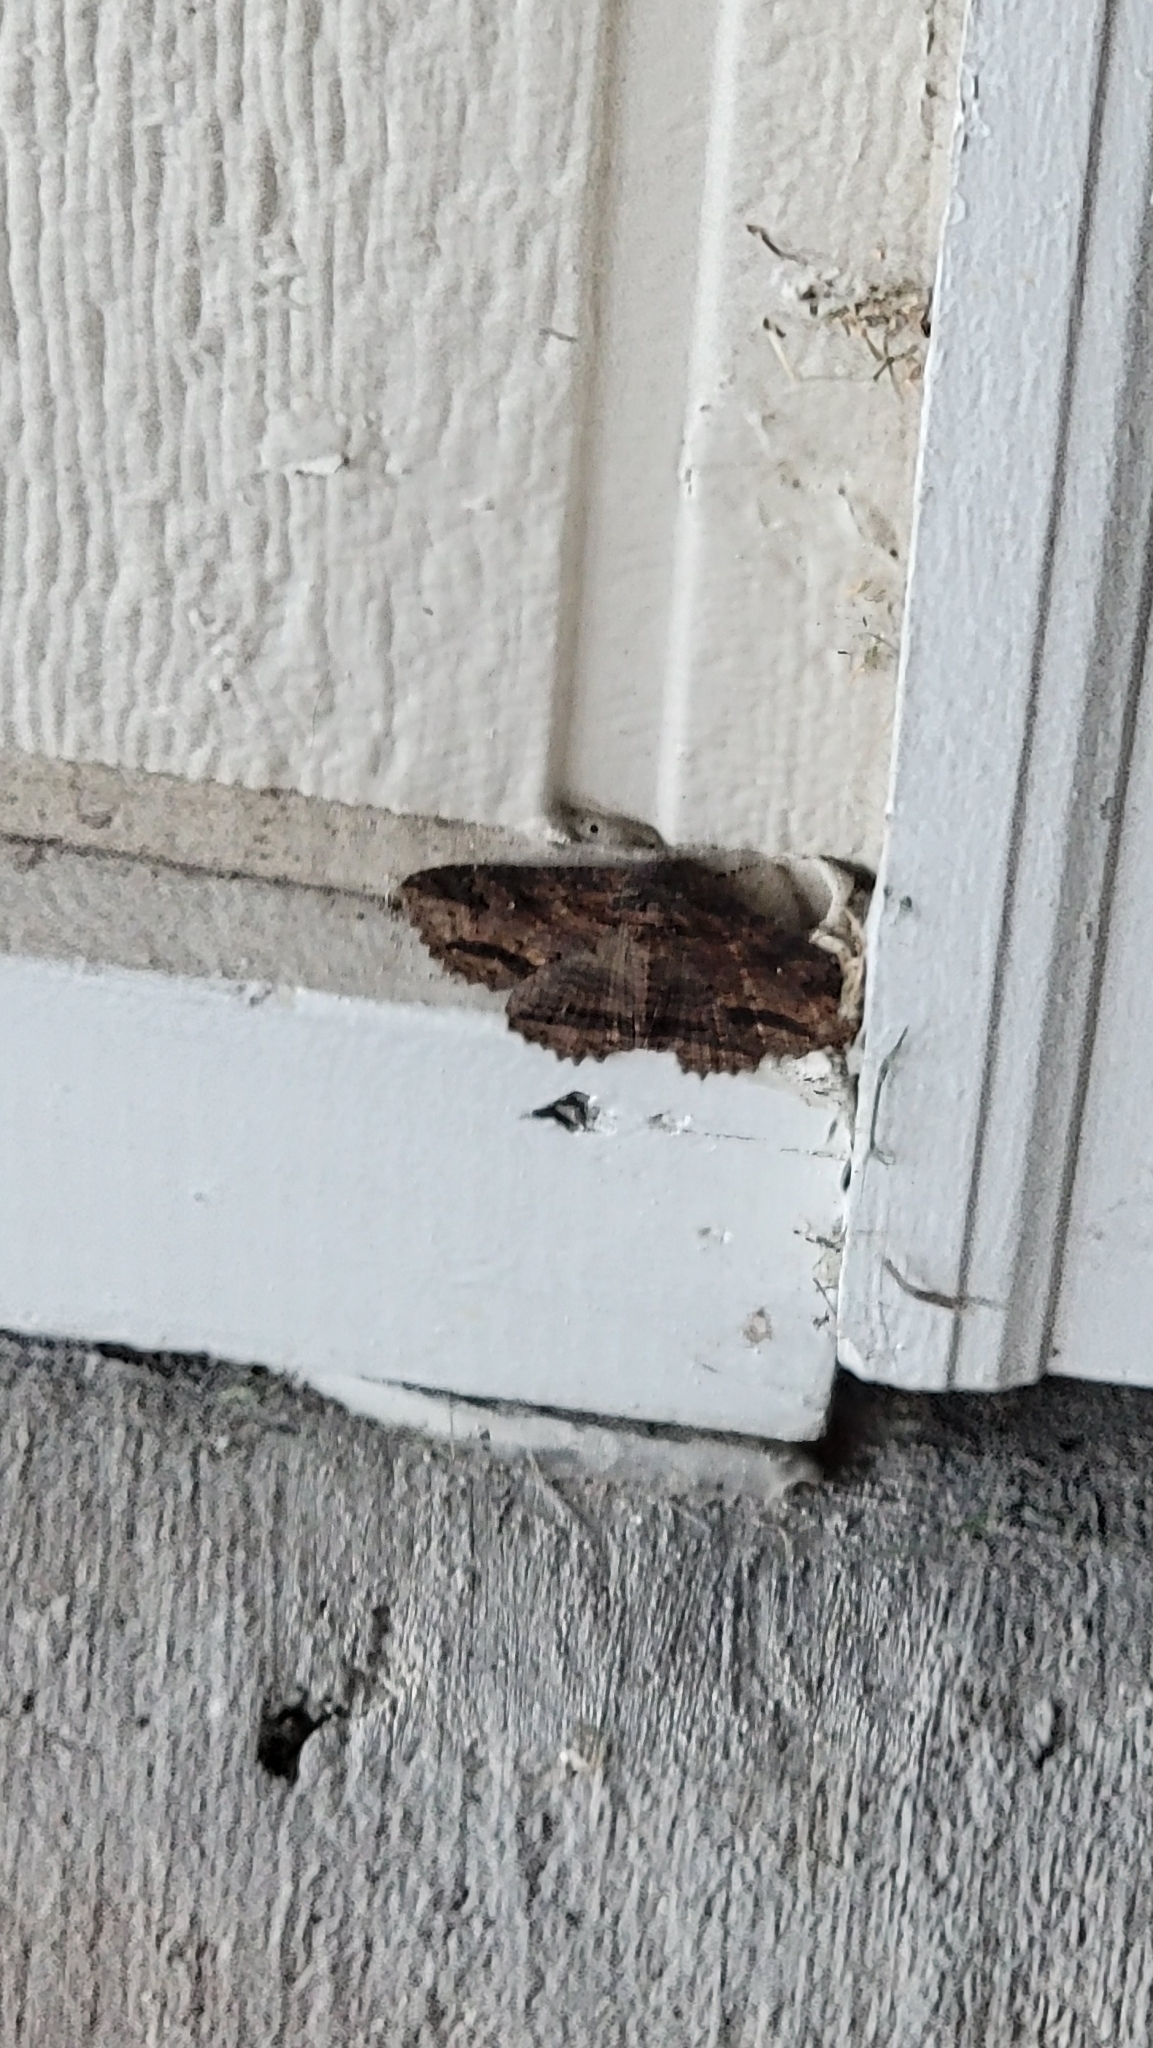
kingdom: Animalia
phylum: Arthropoda
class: Insecta
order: Lepidoptera
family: Erebidae
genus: Zale
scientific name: Zale lunata
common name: Lunate zale moth
